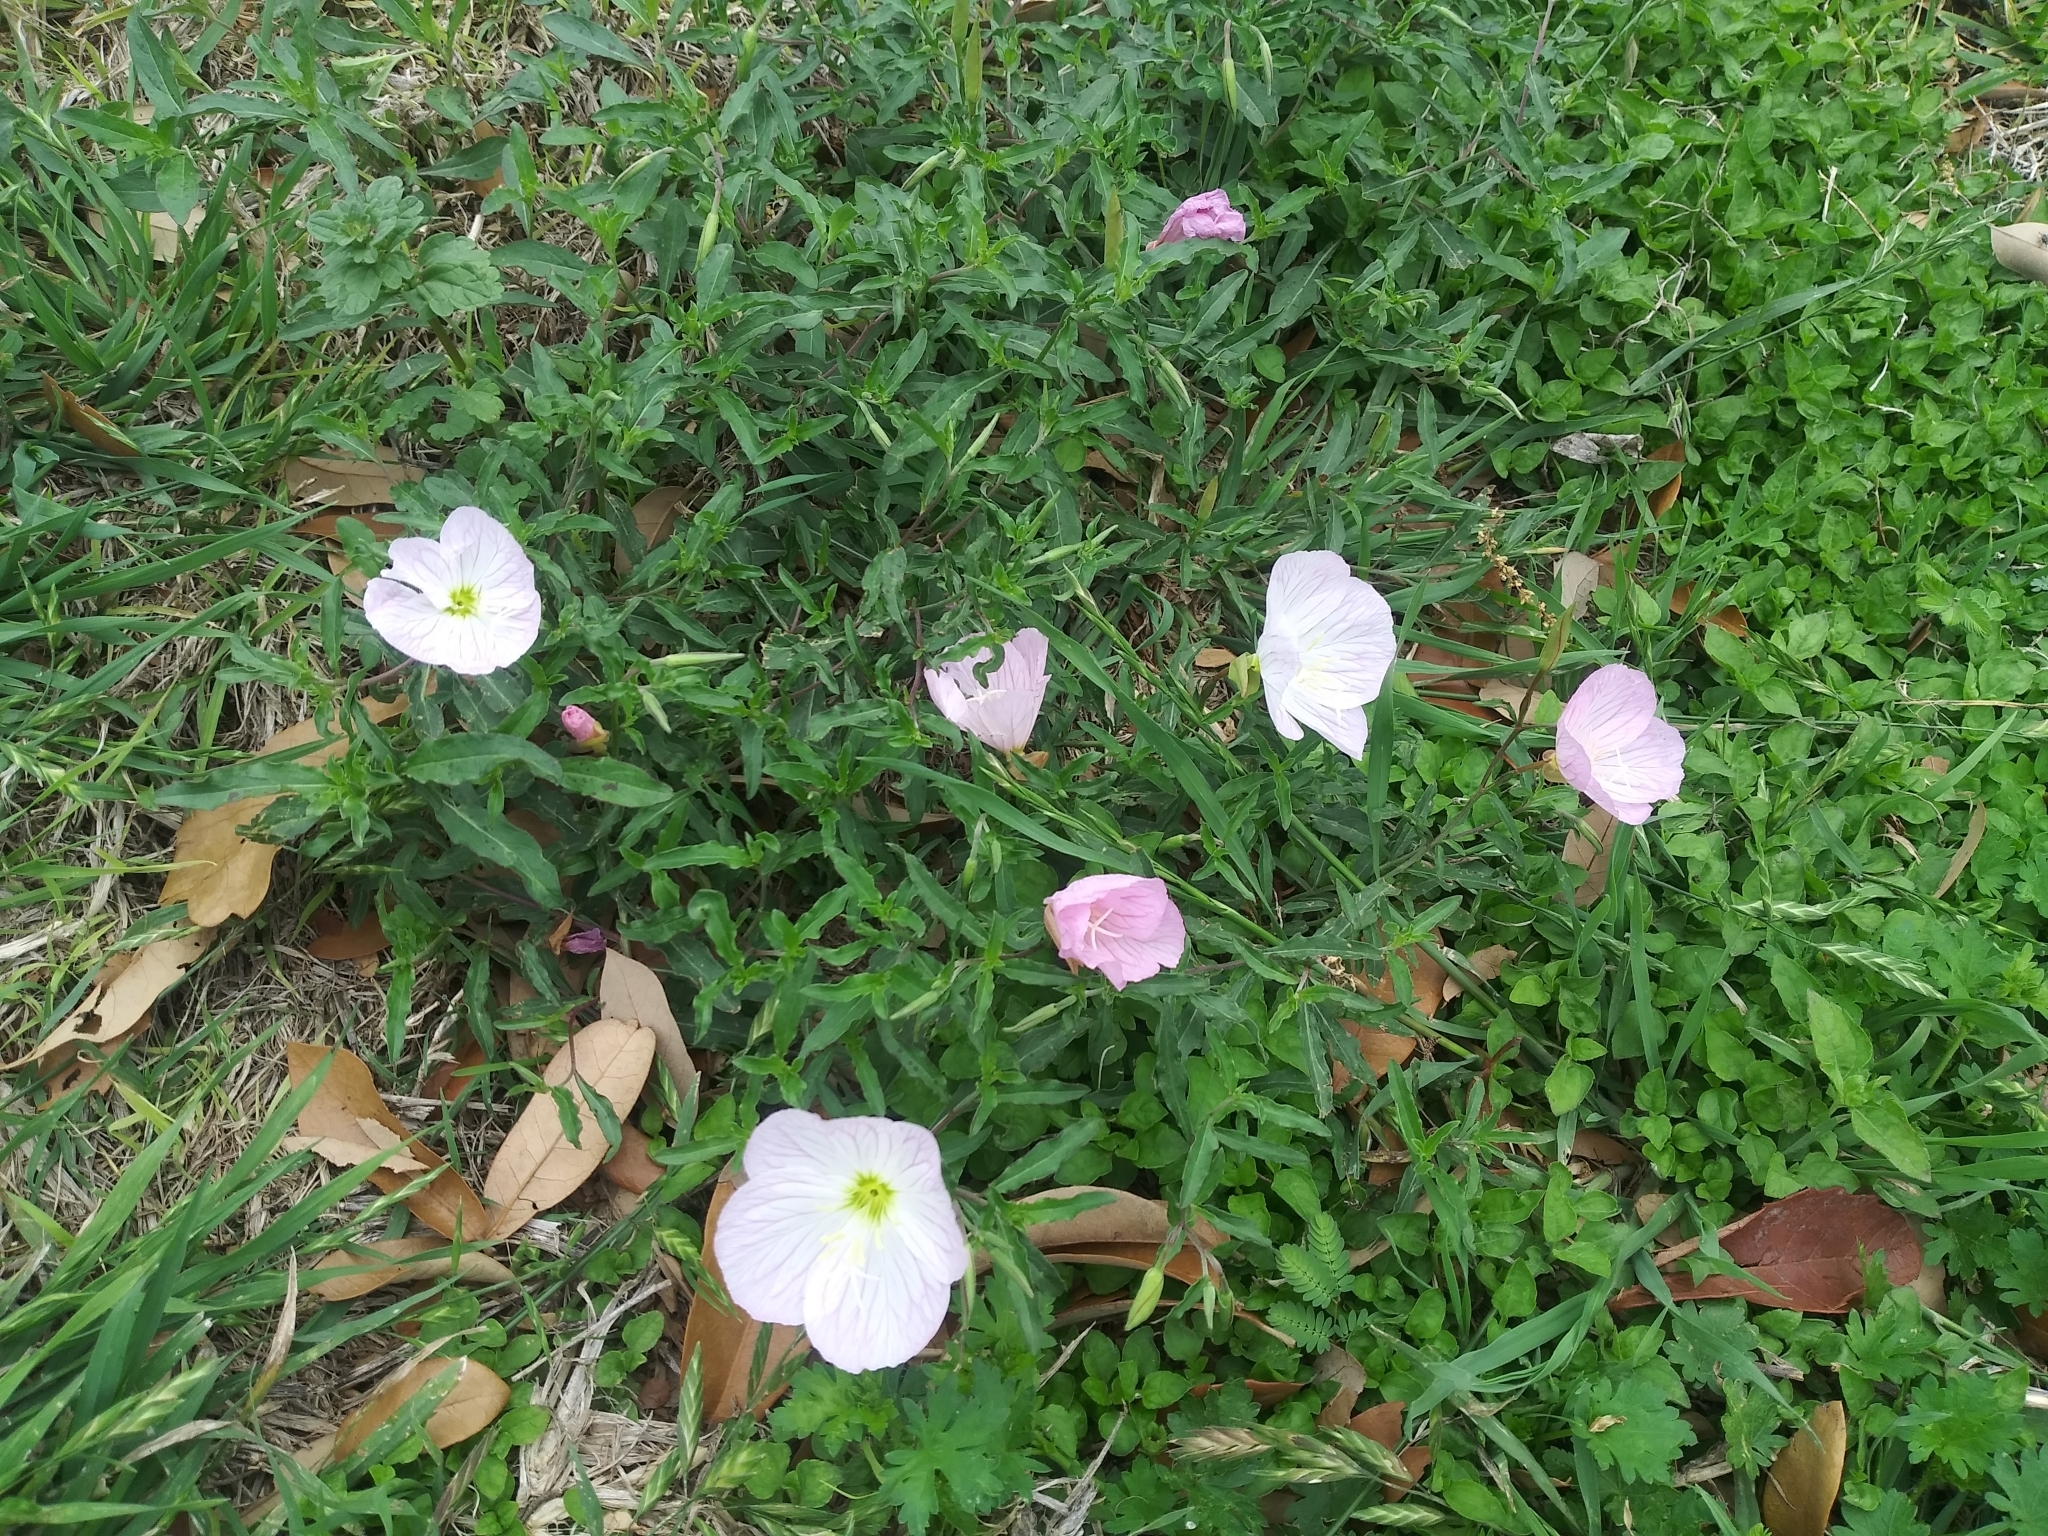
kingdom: Plantae
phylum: Tracheophyta
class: Magnoliopsida
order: Myrtales
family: Onagraceae
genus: Oenothera
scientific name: Oenothera speciosa
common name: White evening-primrose
